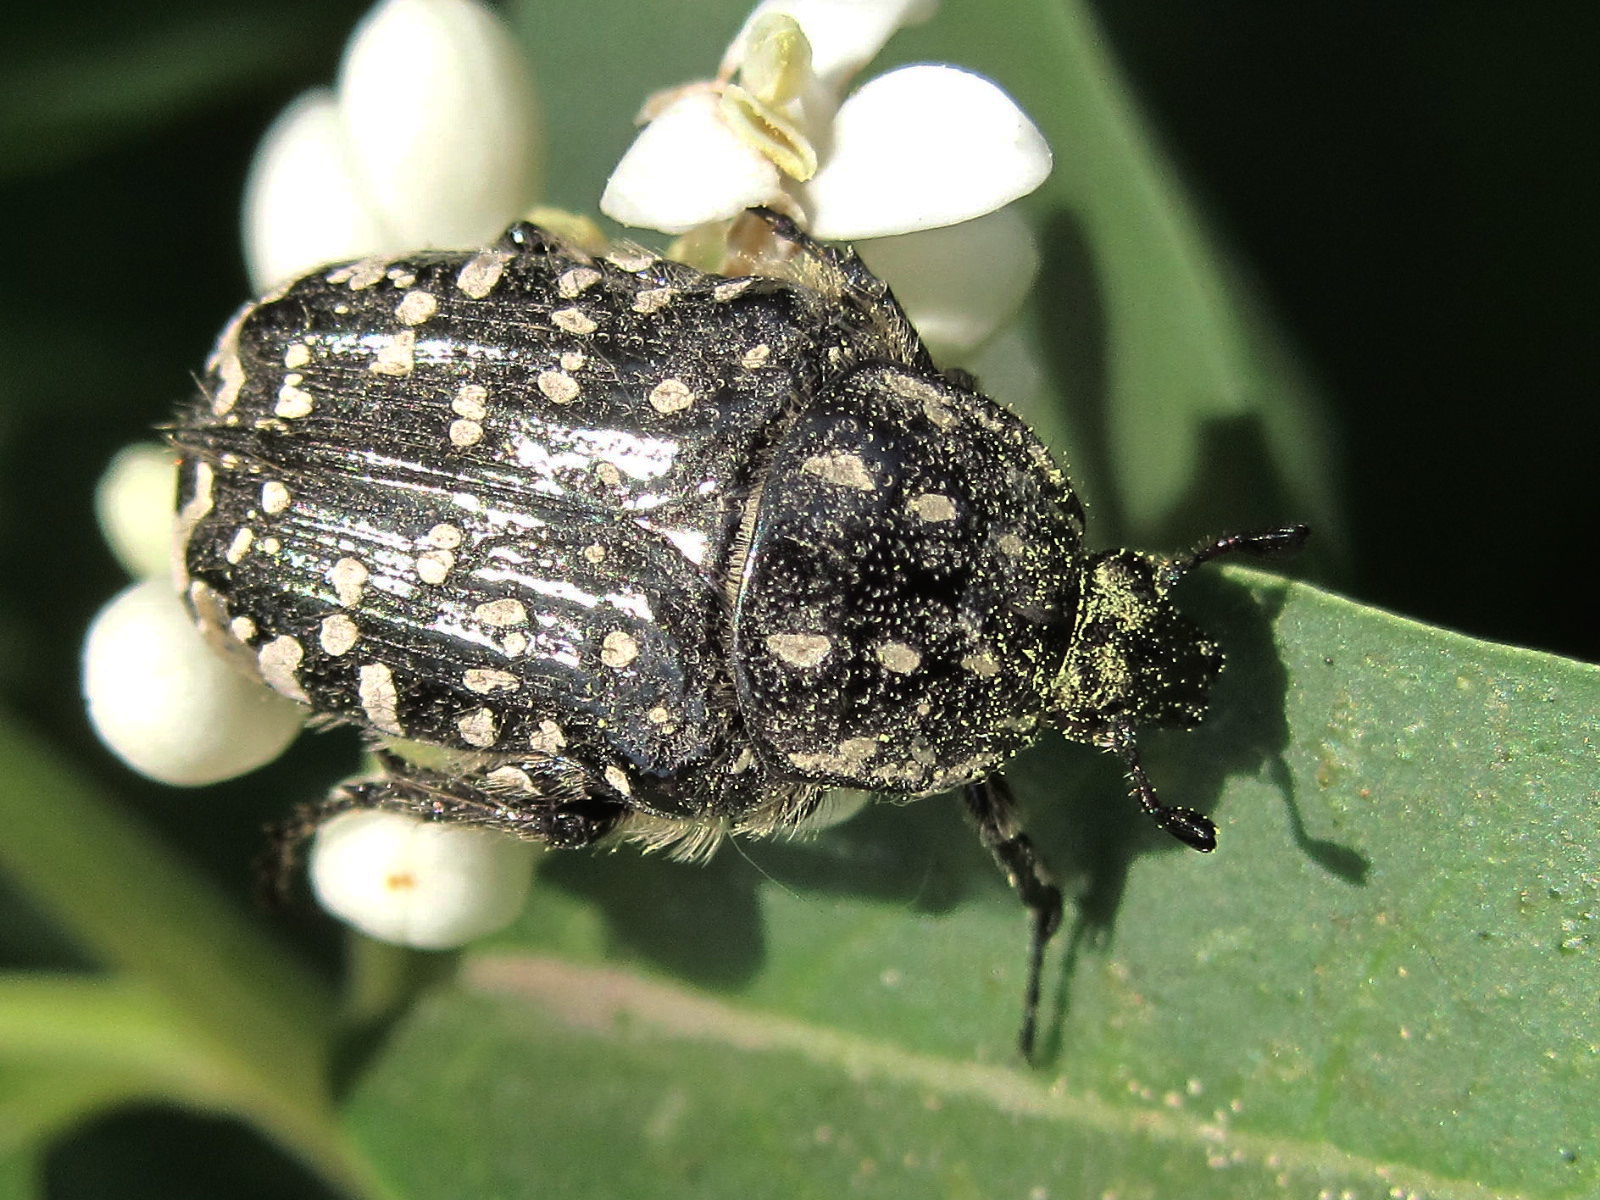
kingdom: Animalia
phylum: Arthropoda
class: Insecta
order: Coleoptera
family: Scarabaeidae
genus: Oxythyrea
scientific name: Oxythyrea funesta
